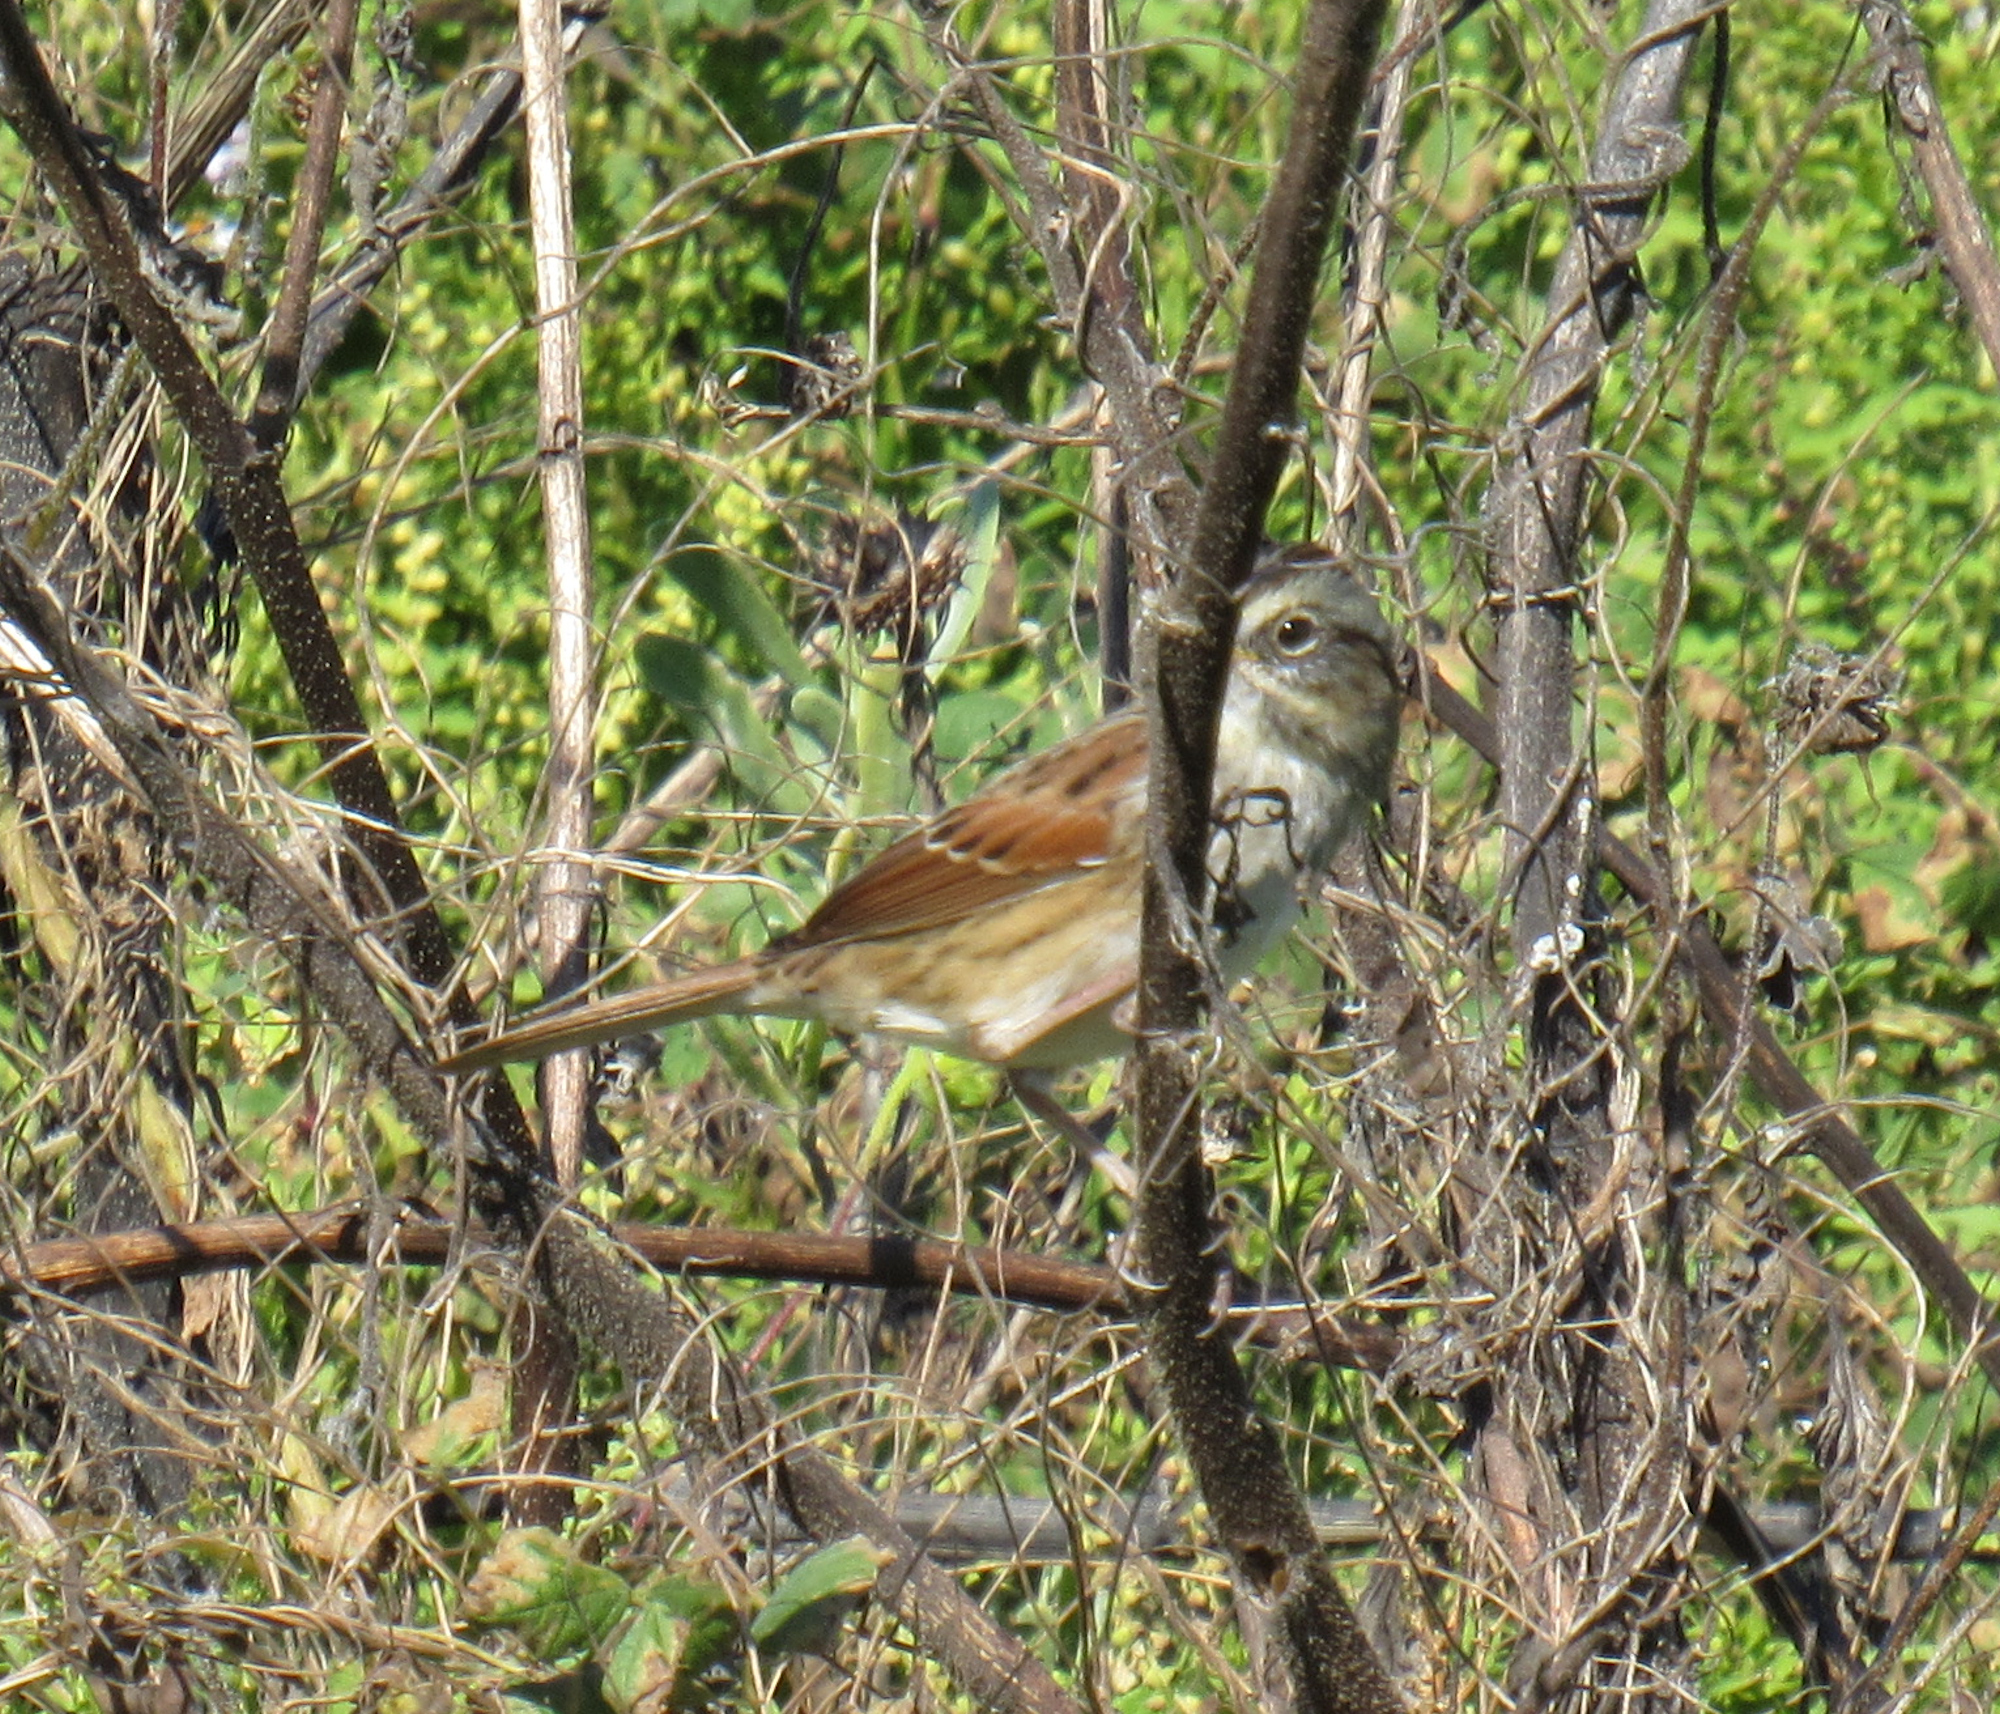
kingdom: Animalia
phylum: Chordata
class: Aves
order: Passeriformes
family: Passerellidae
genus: Melospiza
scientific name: Melospiza georgiana
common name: Swamp sparrow
